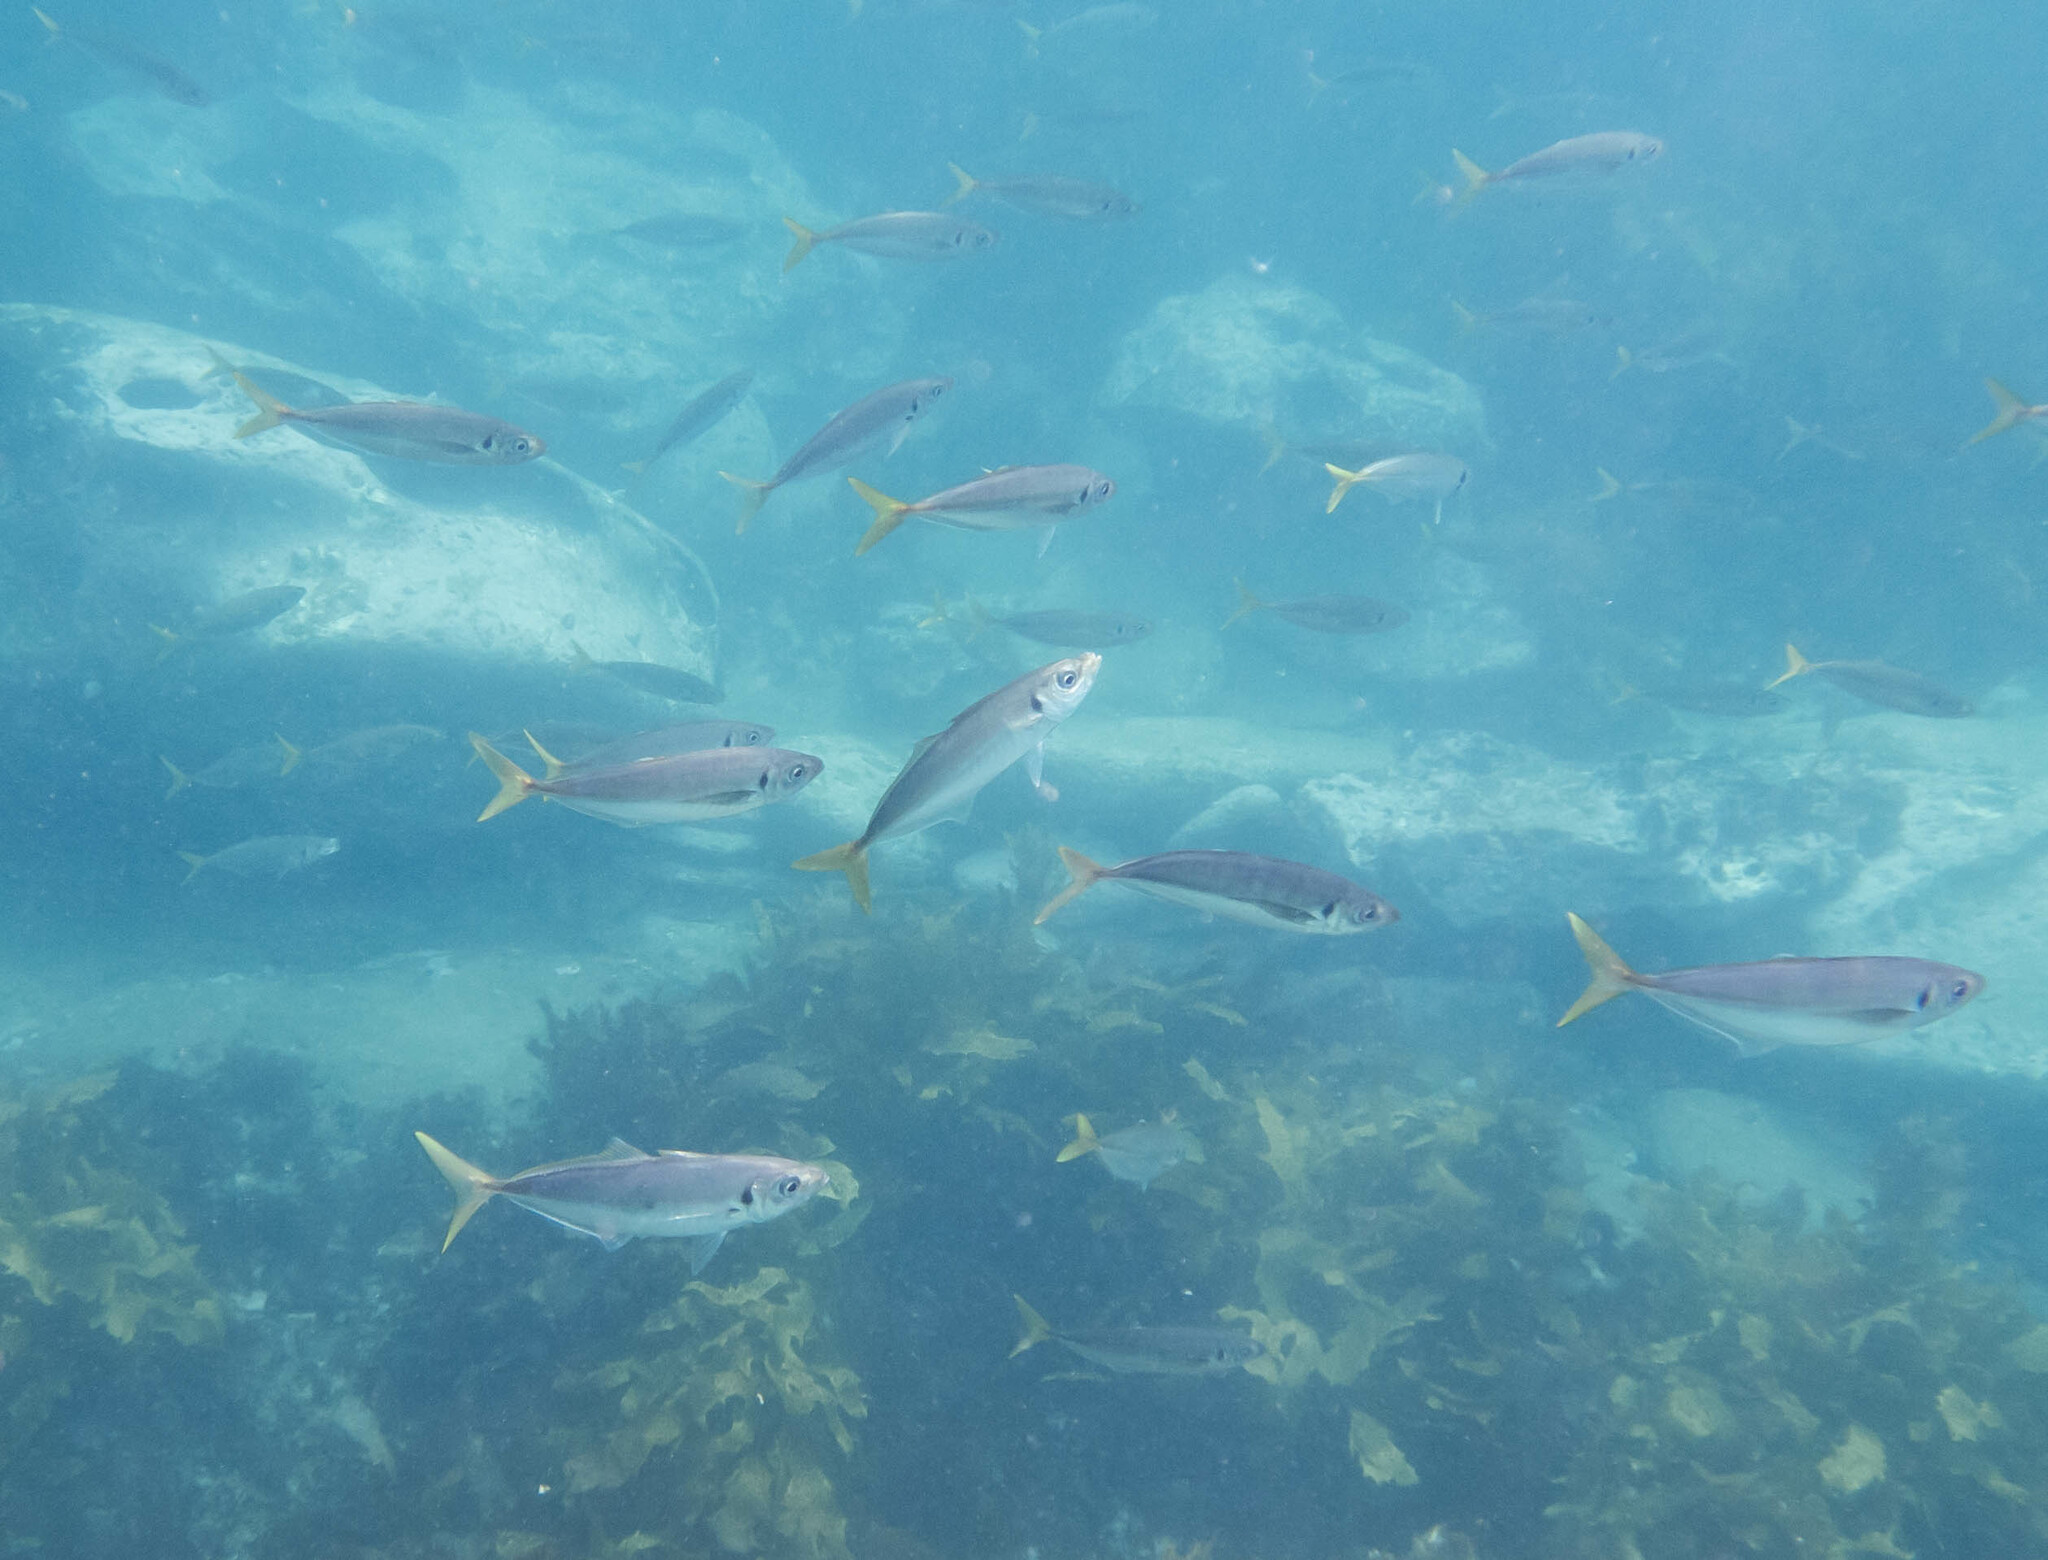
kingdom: Animalia
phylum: Chordata
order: Perciformes
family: Carangidae
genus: Trachurus
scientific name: Trachurus novaezelandiae
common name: Yellowtail horse mackerel
